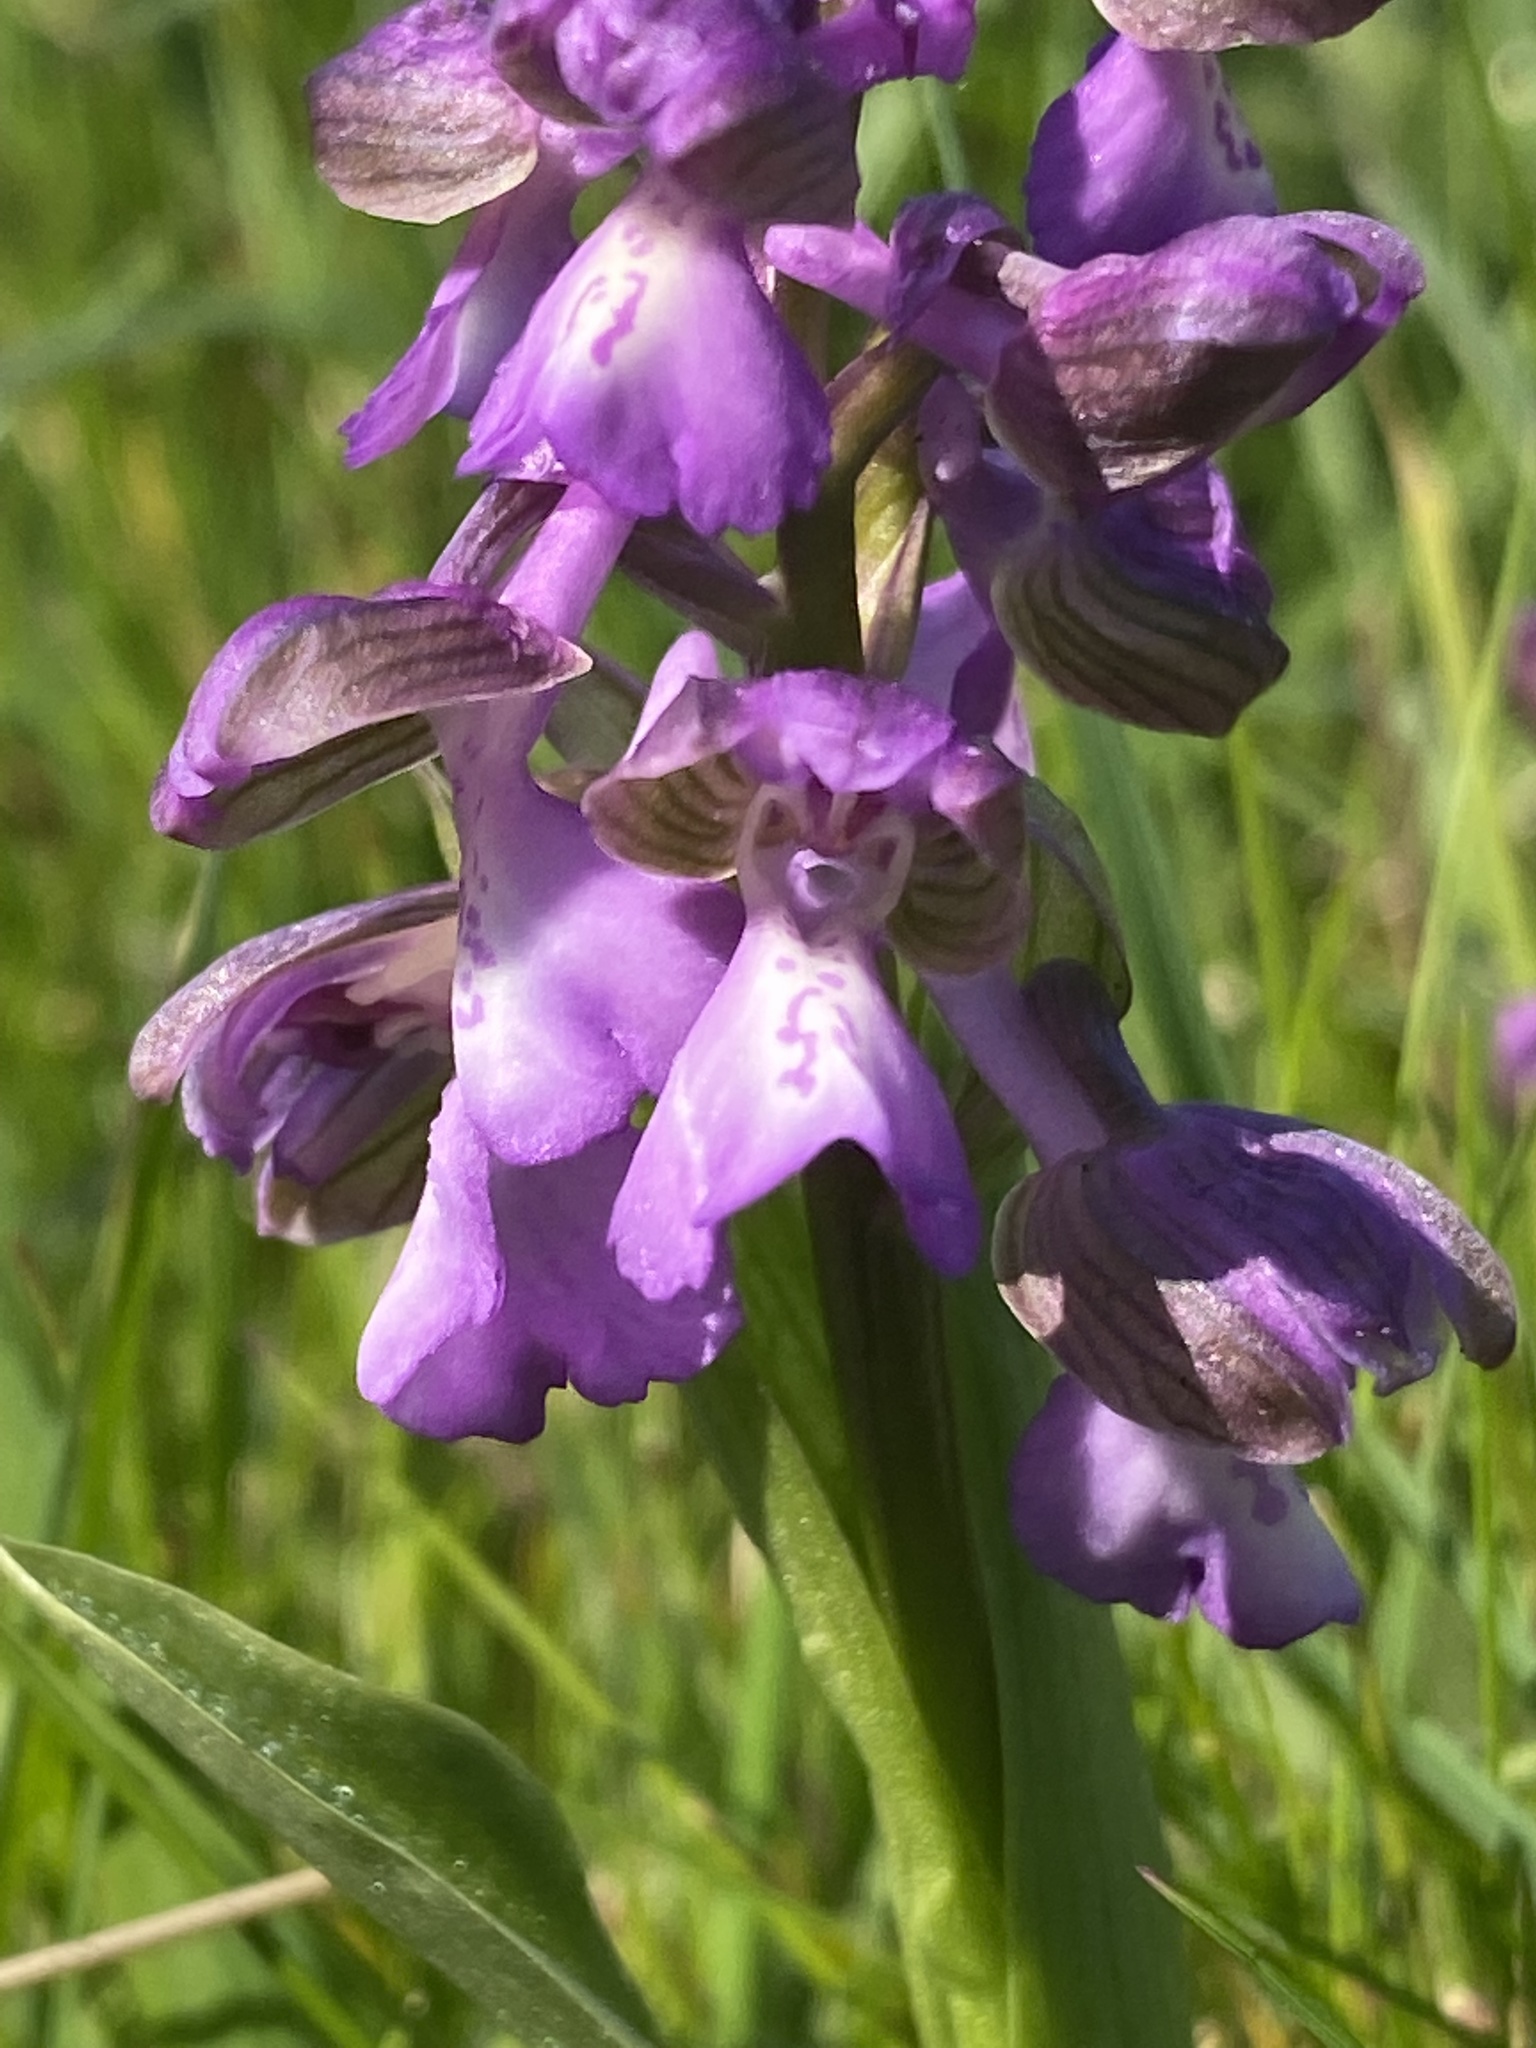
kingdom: Plantae
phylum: Tracheophyta
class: Liliopsida
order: Asparagales
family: Orchidaceae
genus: Anacamptis
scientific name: Anacamptis morio
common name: Green-winged orchid
